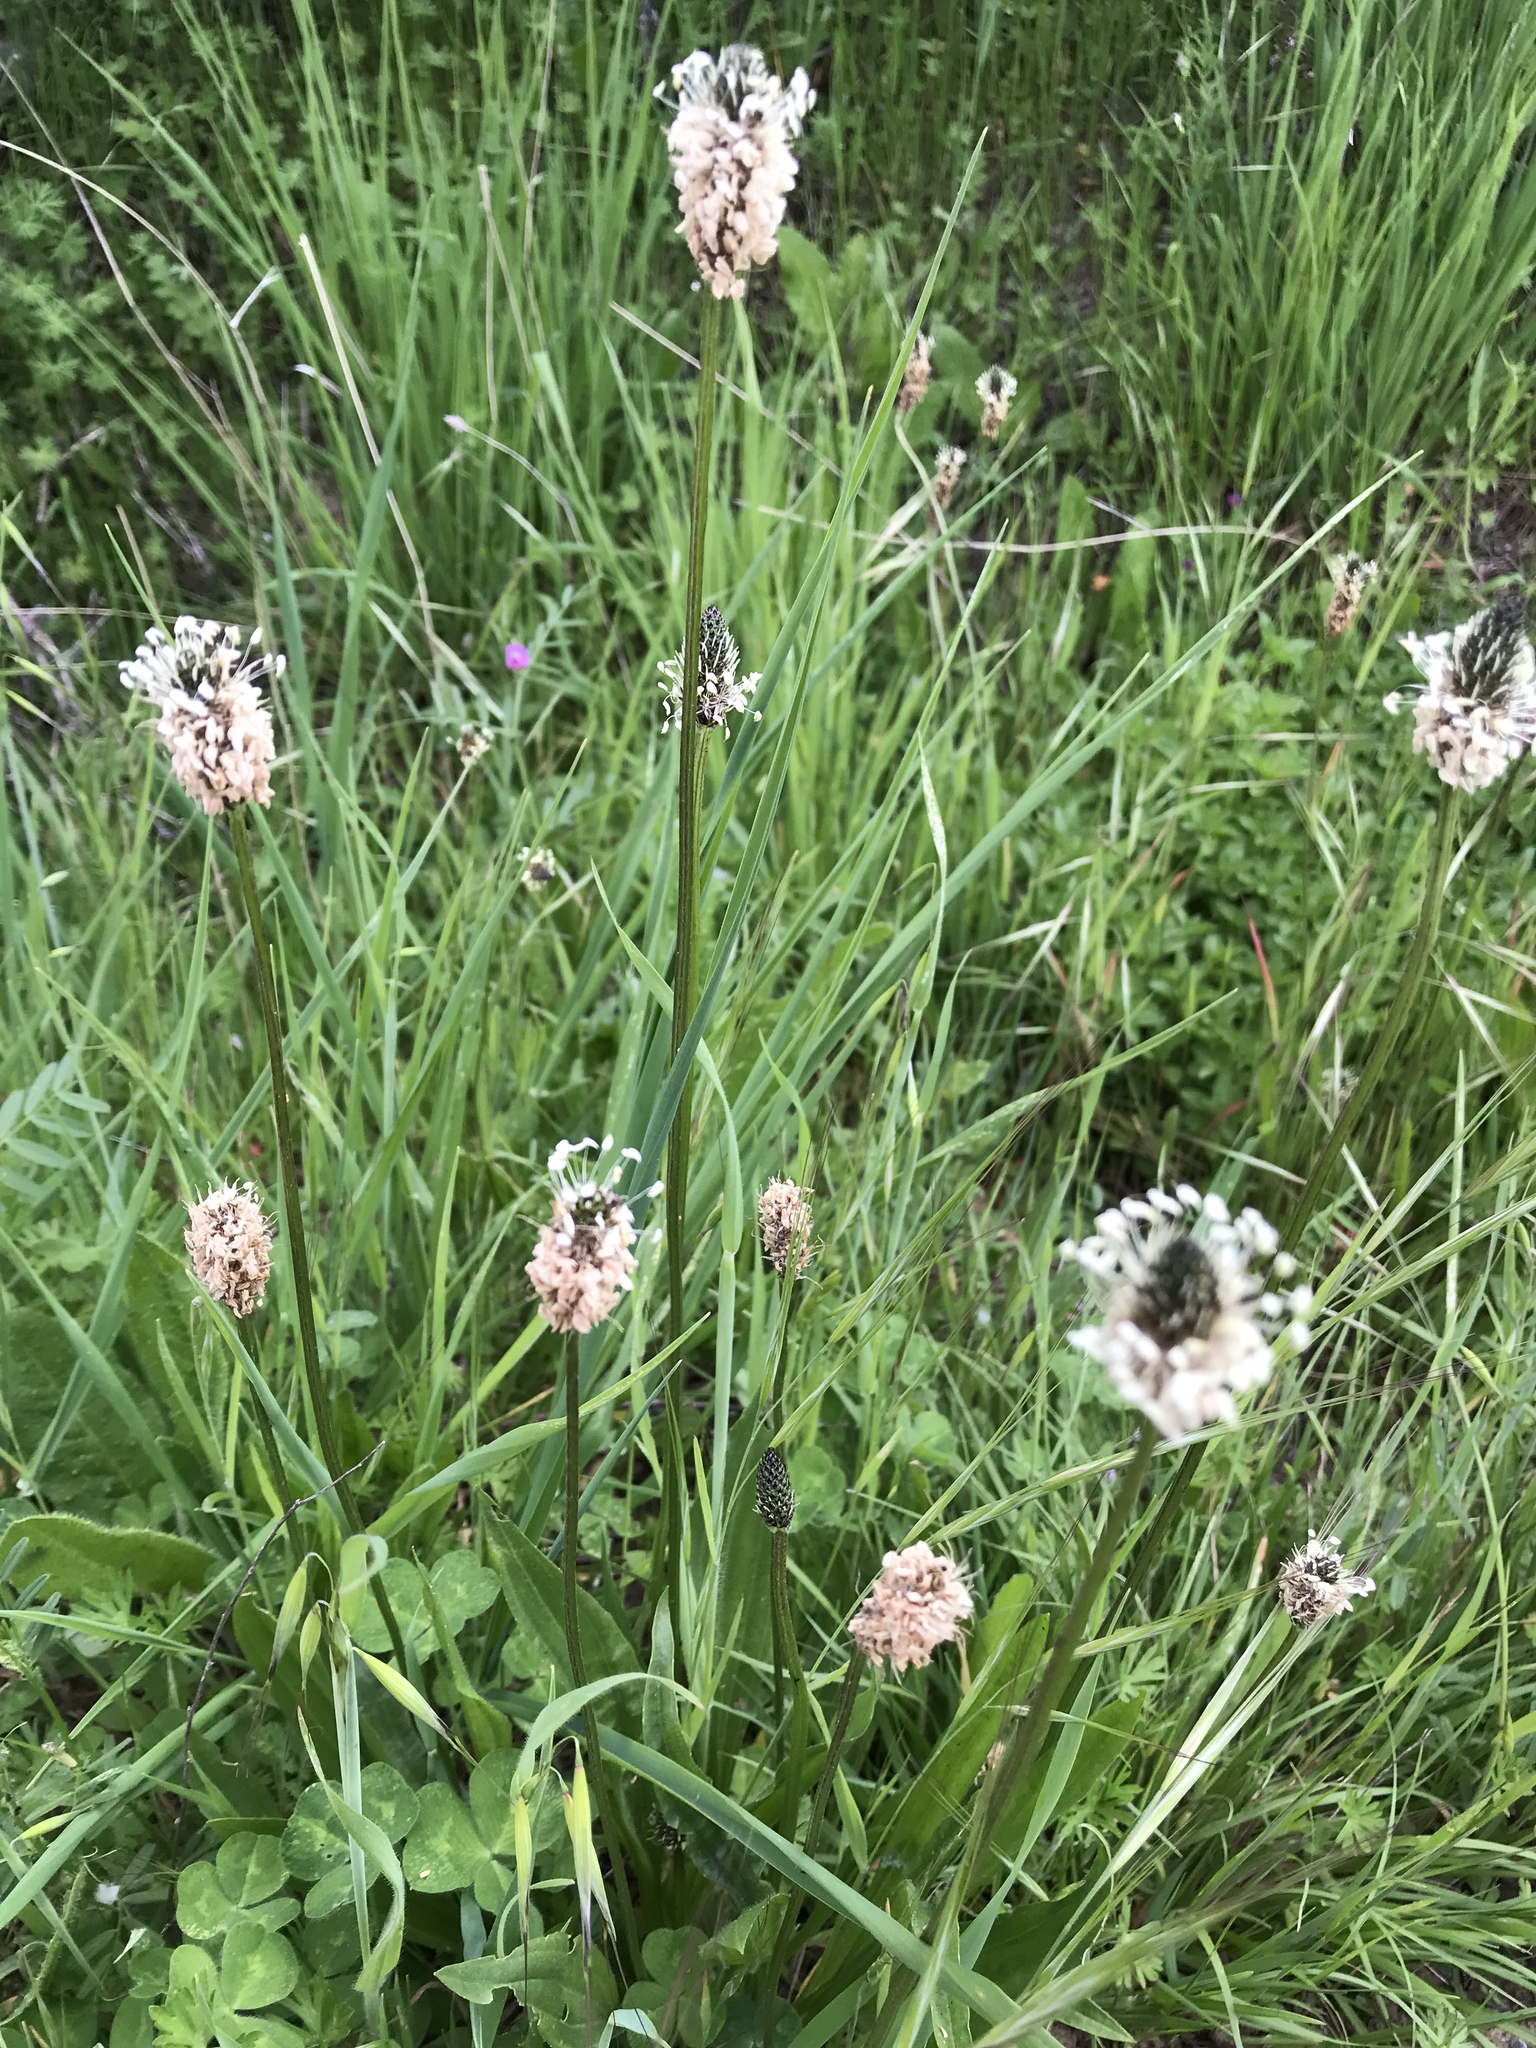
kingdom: Plantae
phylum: Tracheophyta
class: Magnoliopsida
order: Lamiales
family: Plantaginaceae
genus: Plantago
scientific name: Plantago lanceolata
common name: Ribwort plantain
